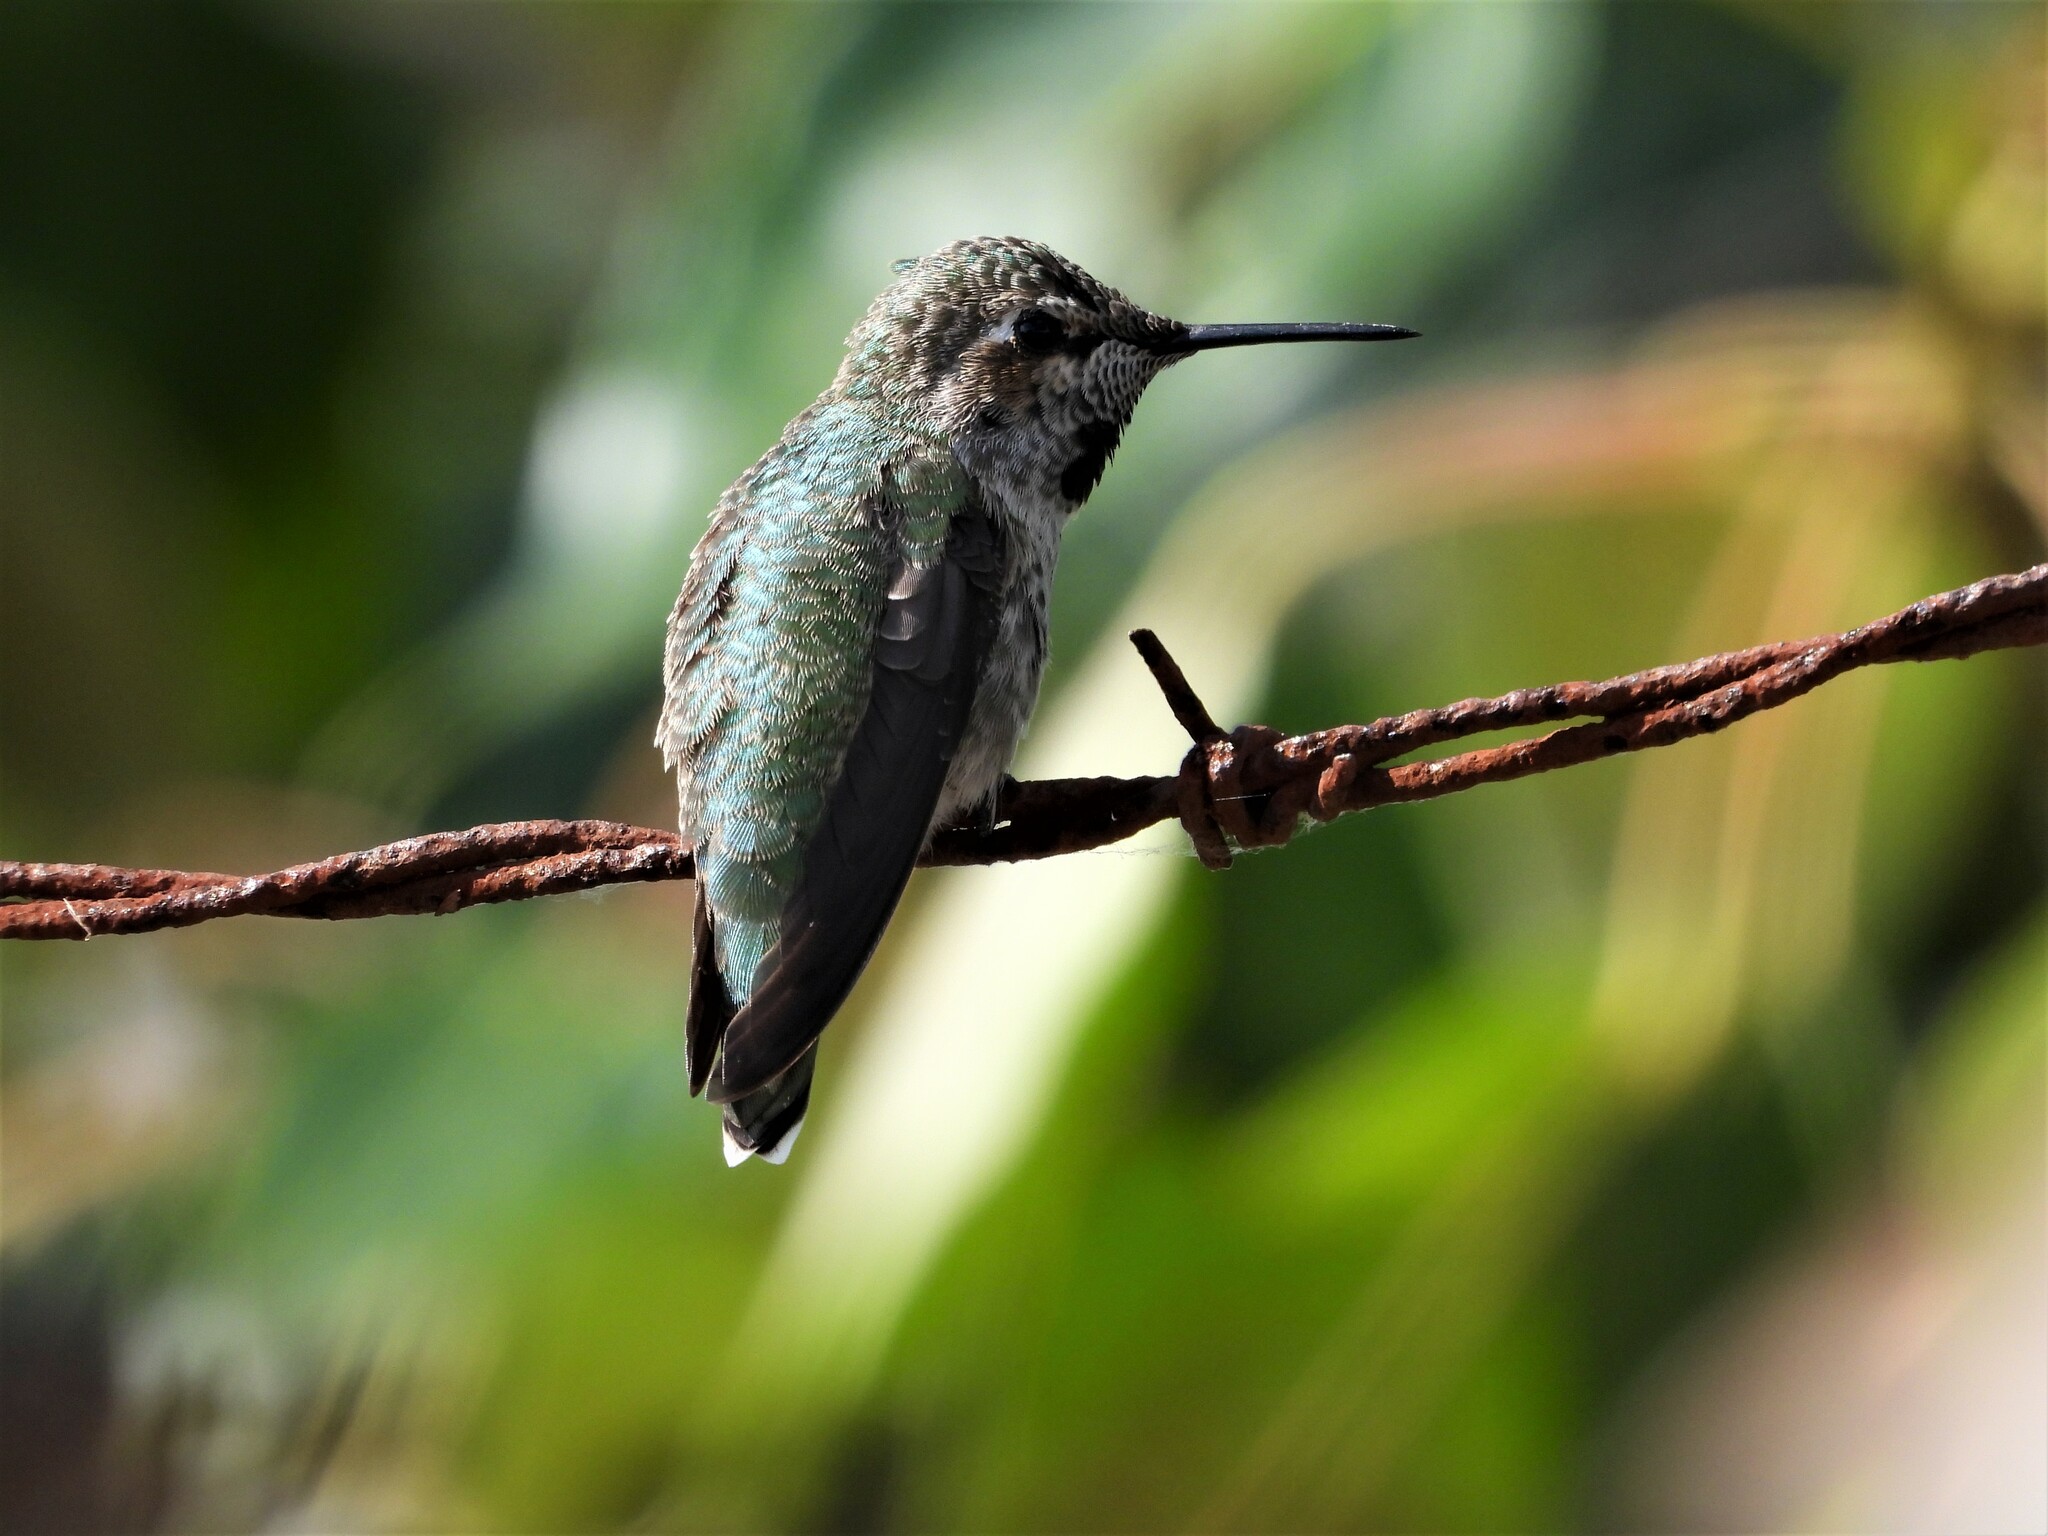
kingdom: Animalia
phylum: Chordata
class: Aves
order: Apodiformes
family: Trochilidae
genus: Calypte
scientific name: Calypte anna
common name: Anna's hummingbird
